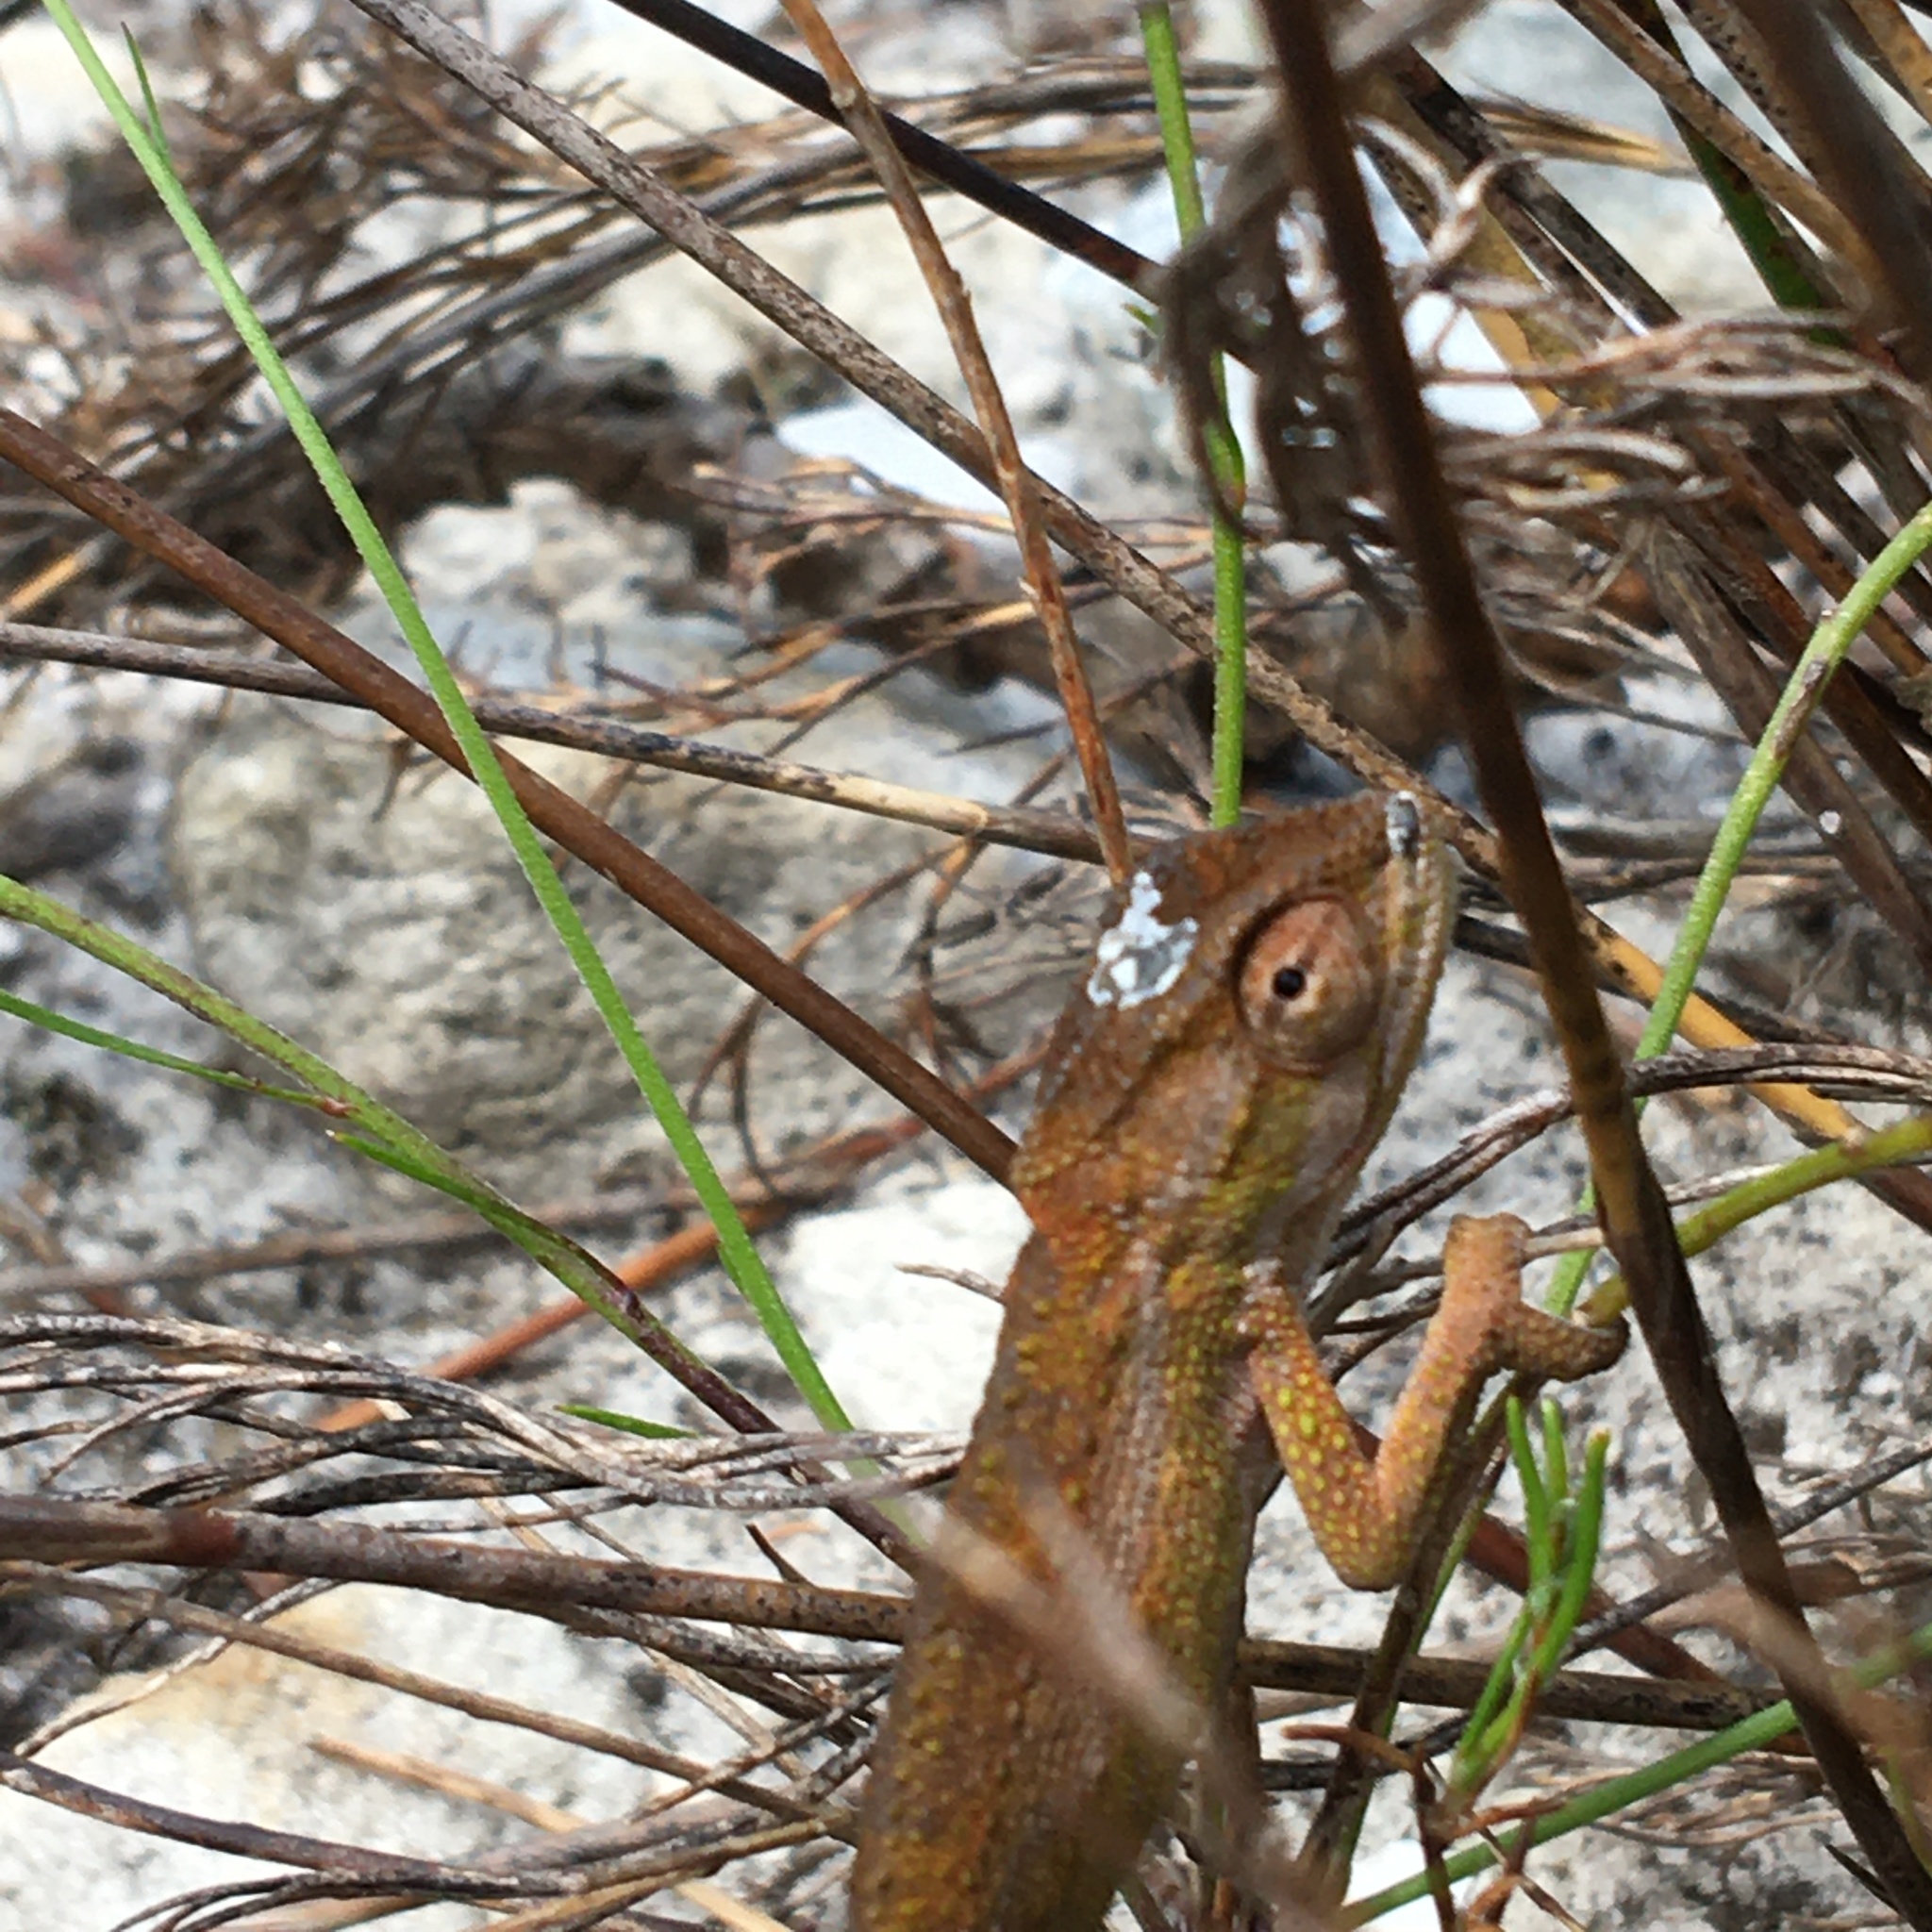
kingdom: Animalia
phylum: Chordata
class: Squamata
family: Chamaeleonidae
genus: Bradypodion
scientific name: Bradypodion pumilum
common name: Cape dwarf chameleon
